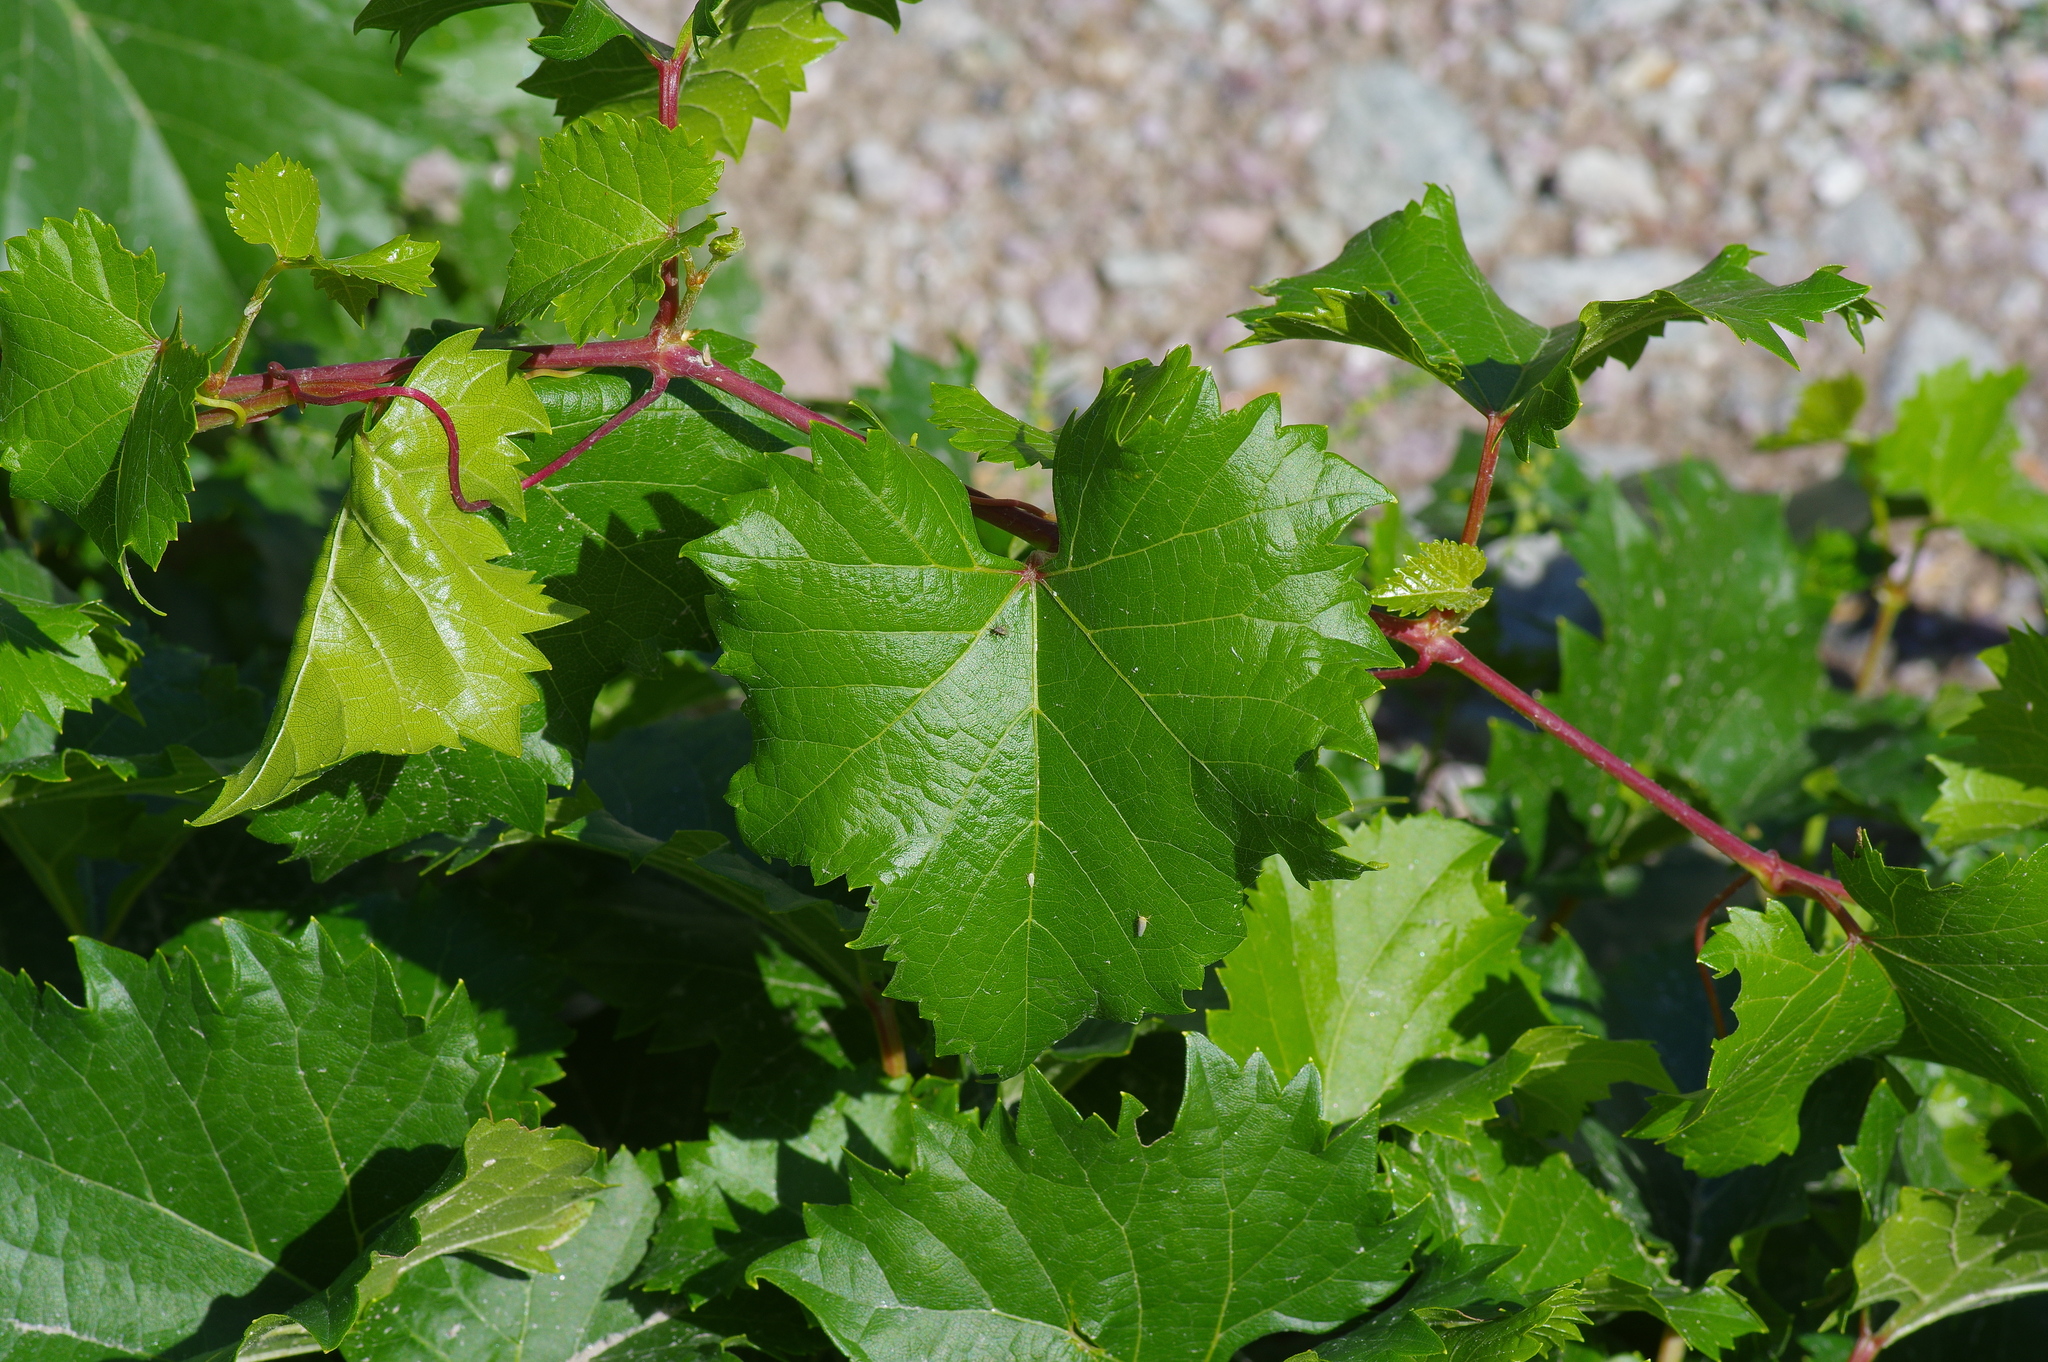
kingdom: Plantae
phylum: Tracheophyta
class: Magnoliopsida
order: Vitales
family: Vitaceae
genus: Vitis
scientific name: Vitis arizonica
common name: Canyon grape
